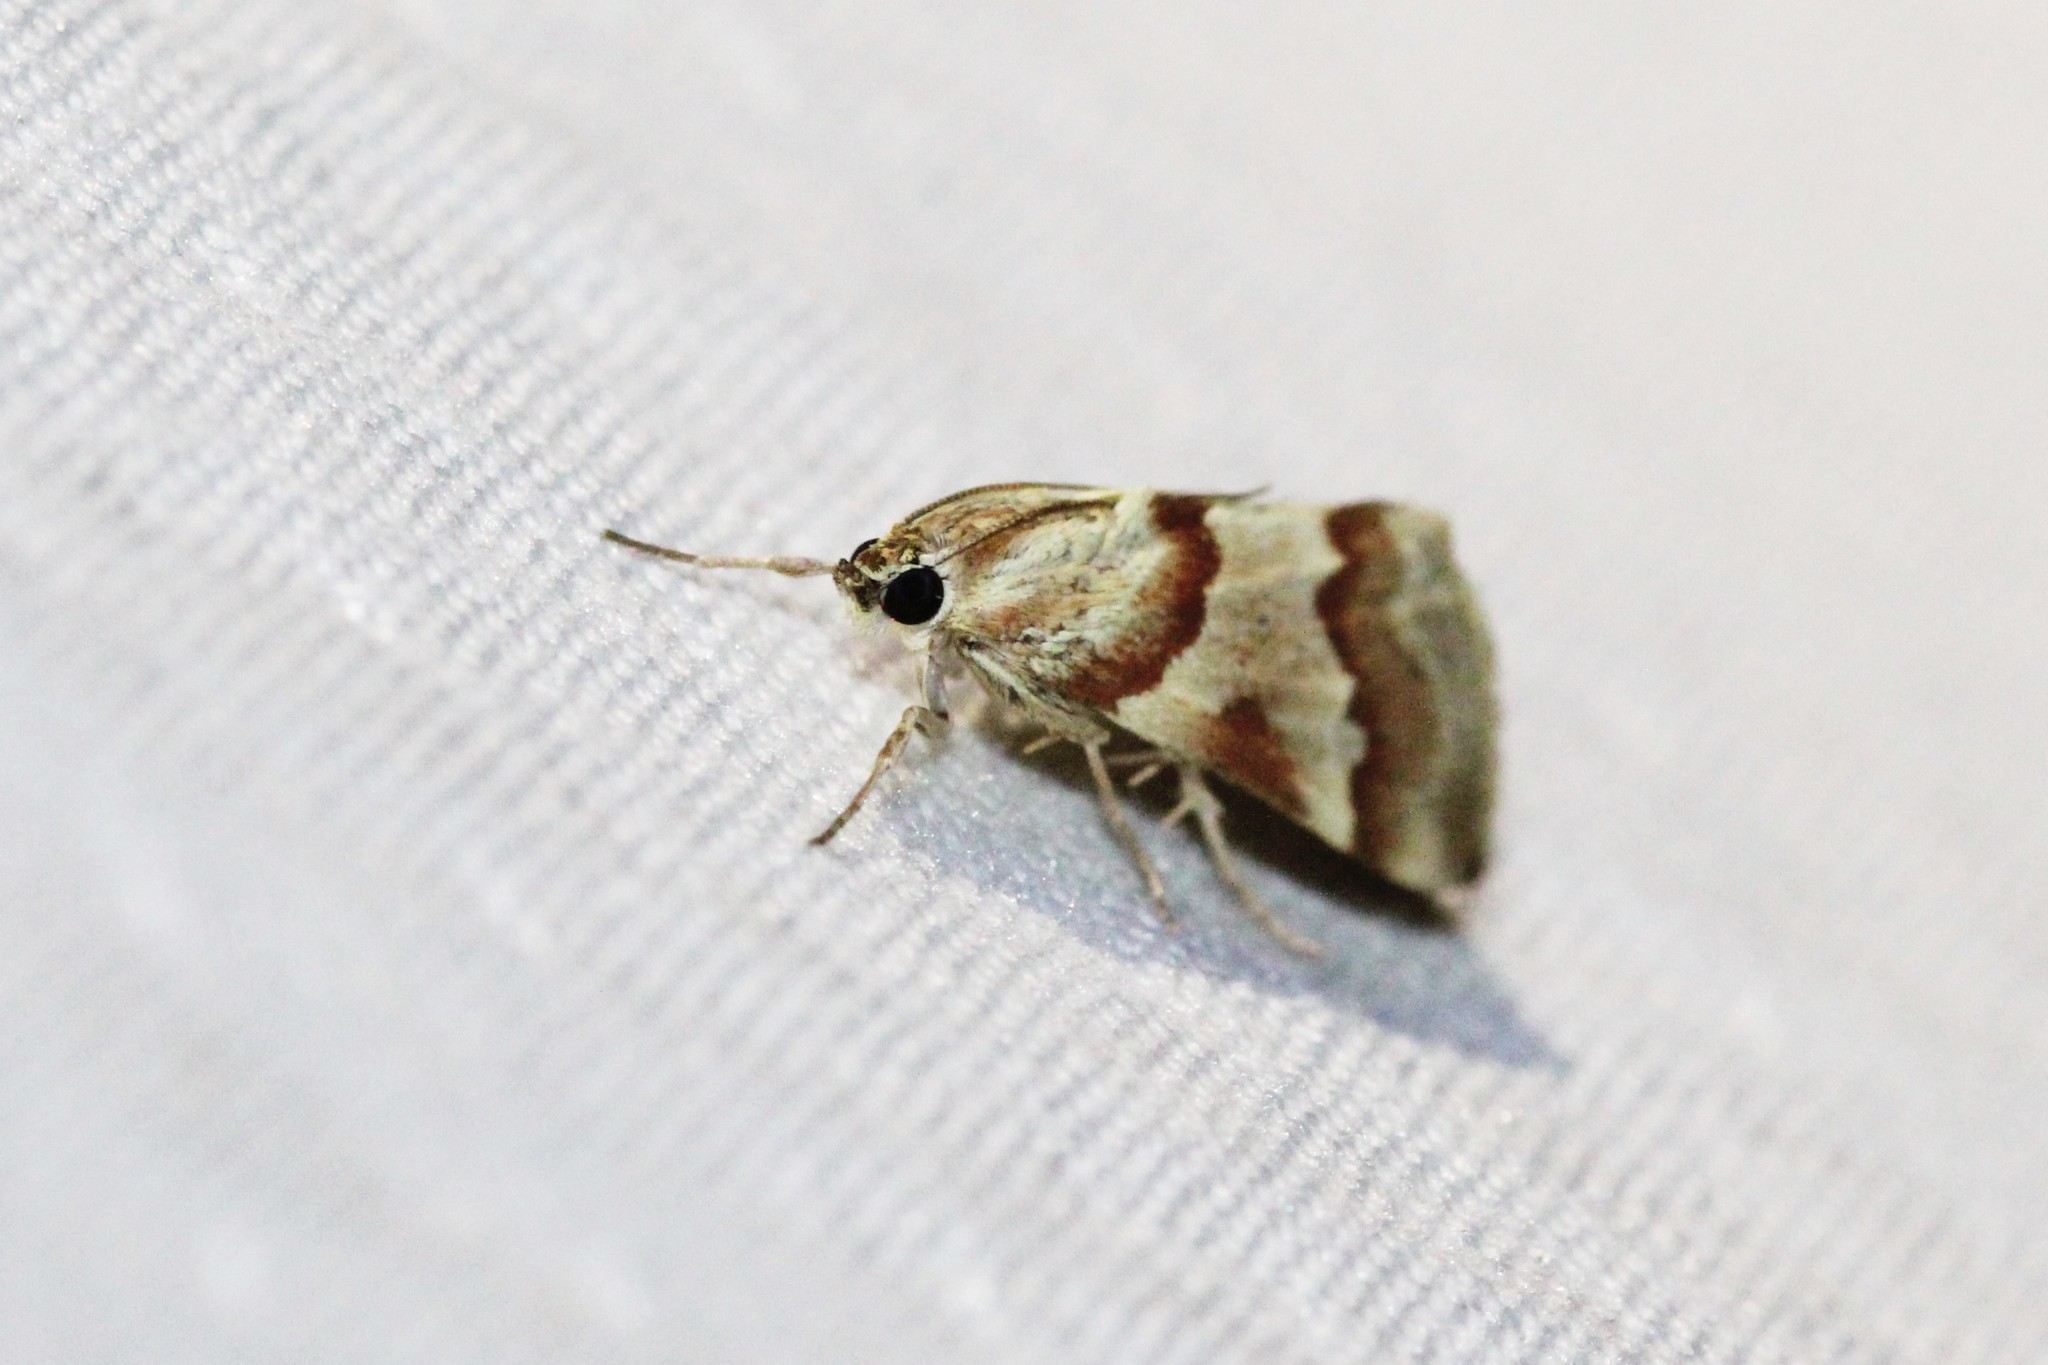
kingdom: Animalia
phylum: Arthropoda
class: Insecta
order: Lepidoptera
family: Crambidae
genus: Noctuelia
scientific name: Noctuelia Mimoschinia rufofascialis
